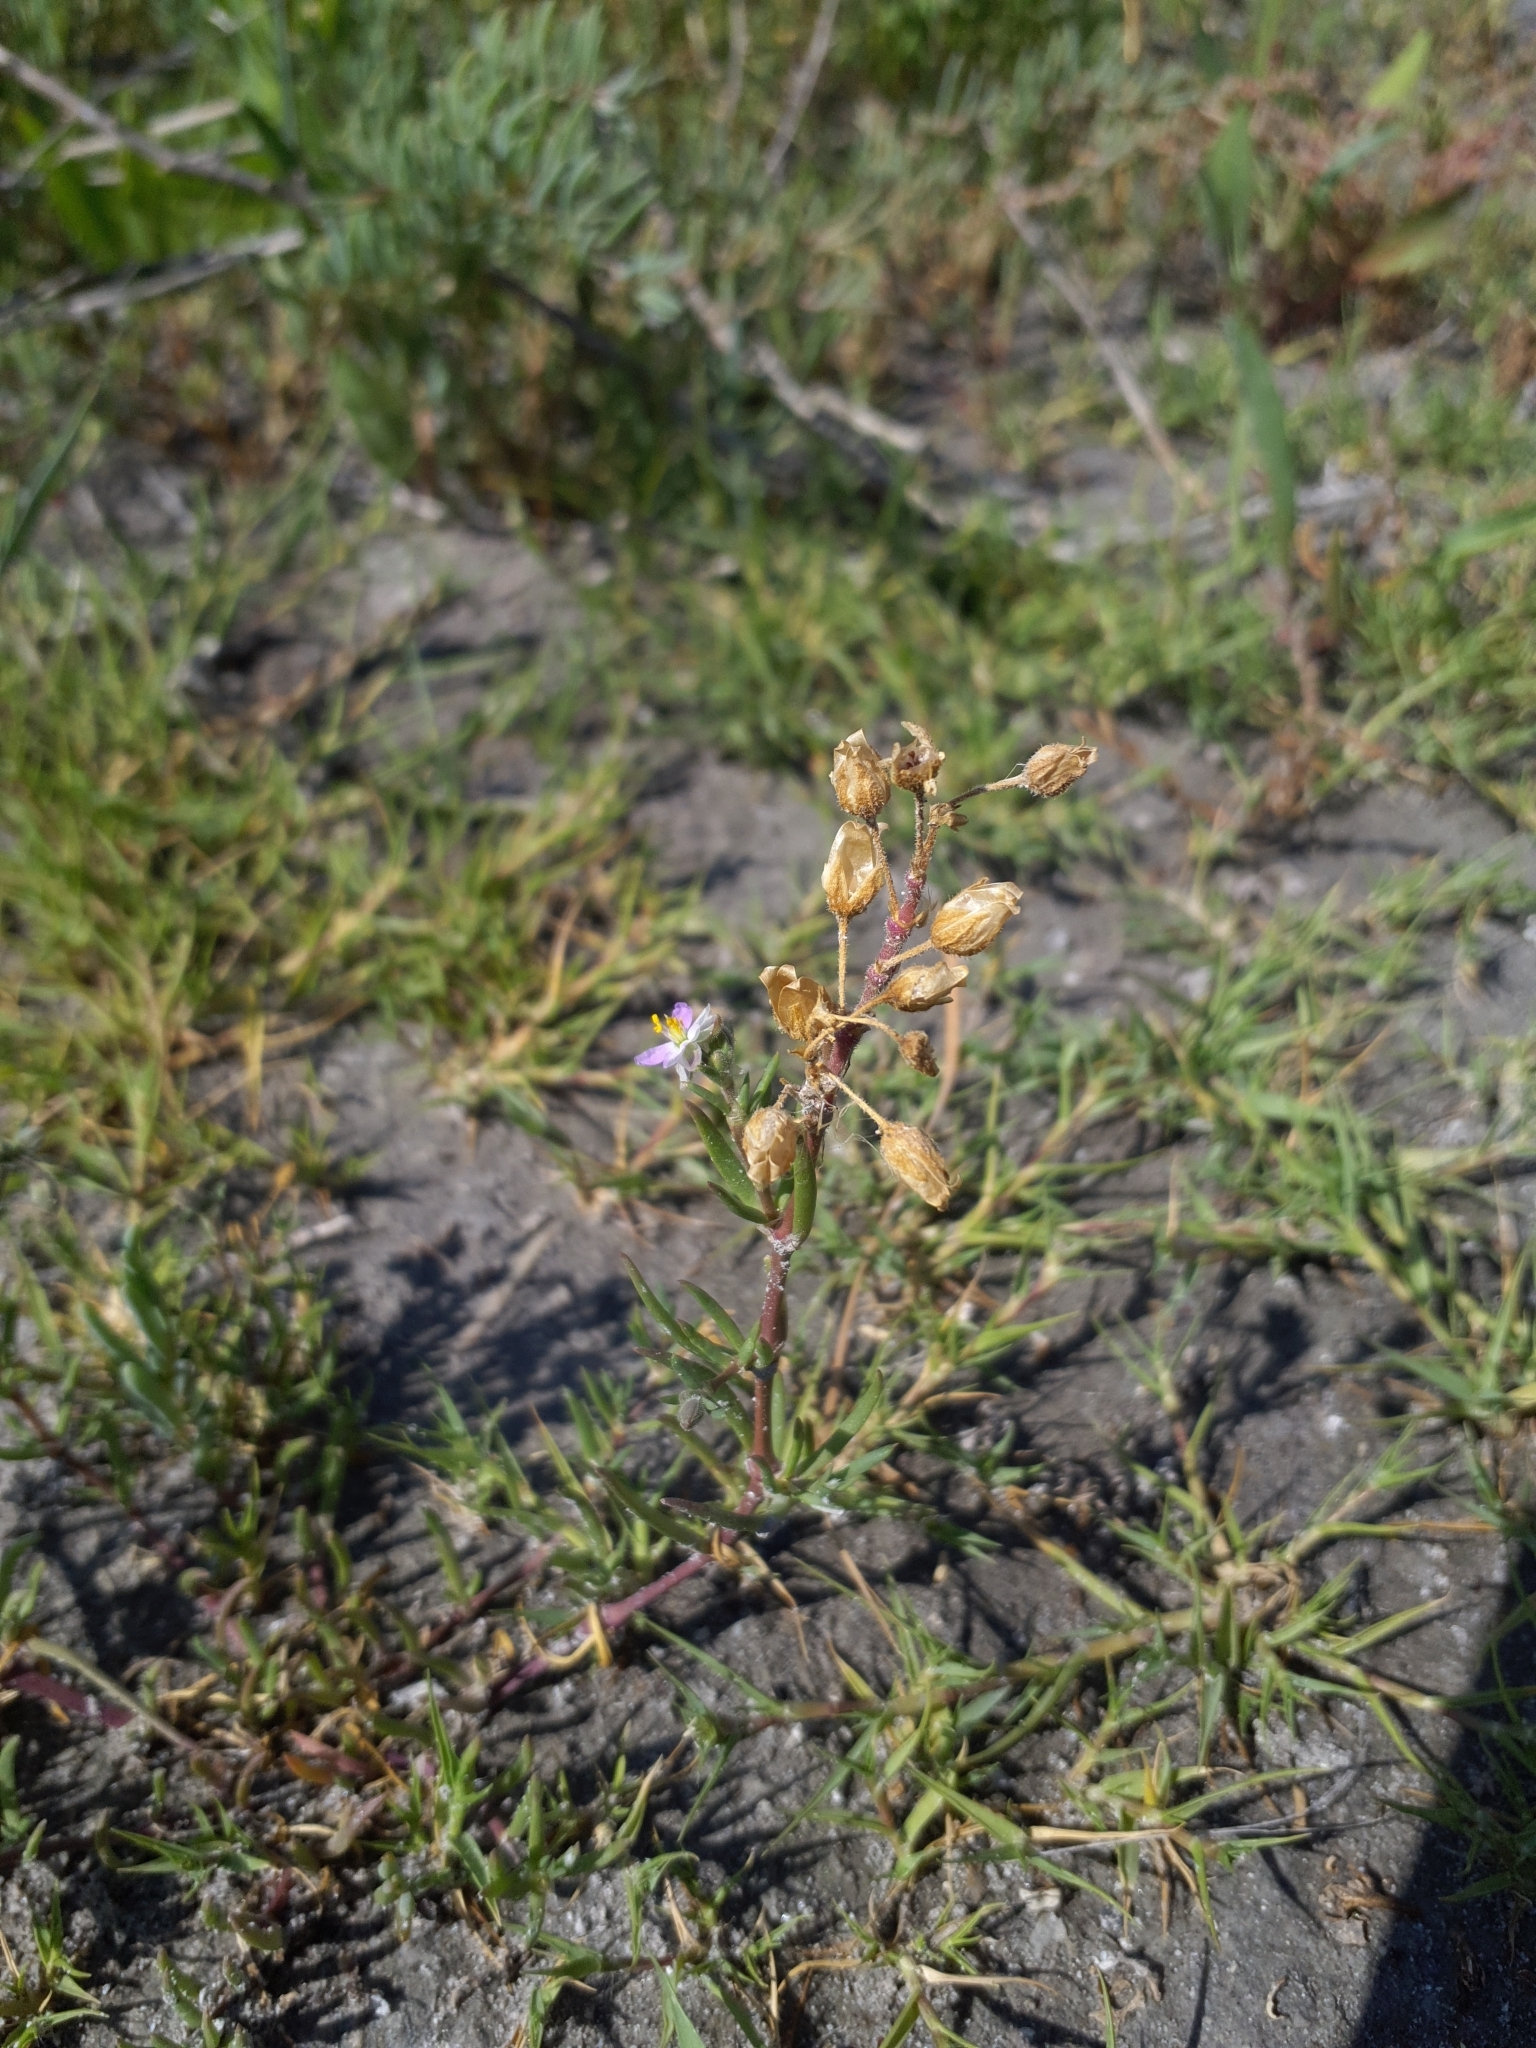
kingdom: Plantae
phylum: Tracheophyta
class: Magnoliopsida
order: Caryophyllales
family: Caryophyllaceae
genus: Spergularia
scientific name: Spergularia media
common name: Greater sea-spurrey
